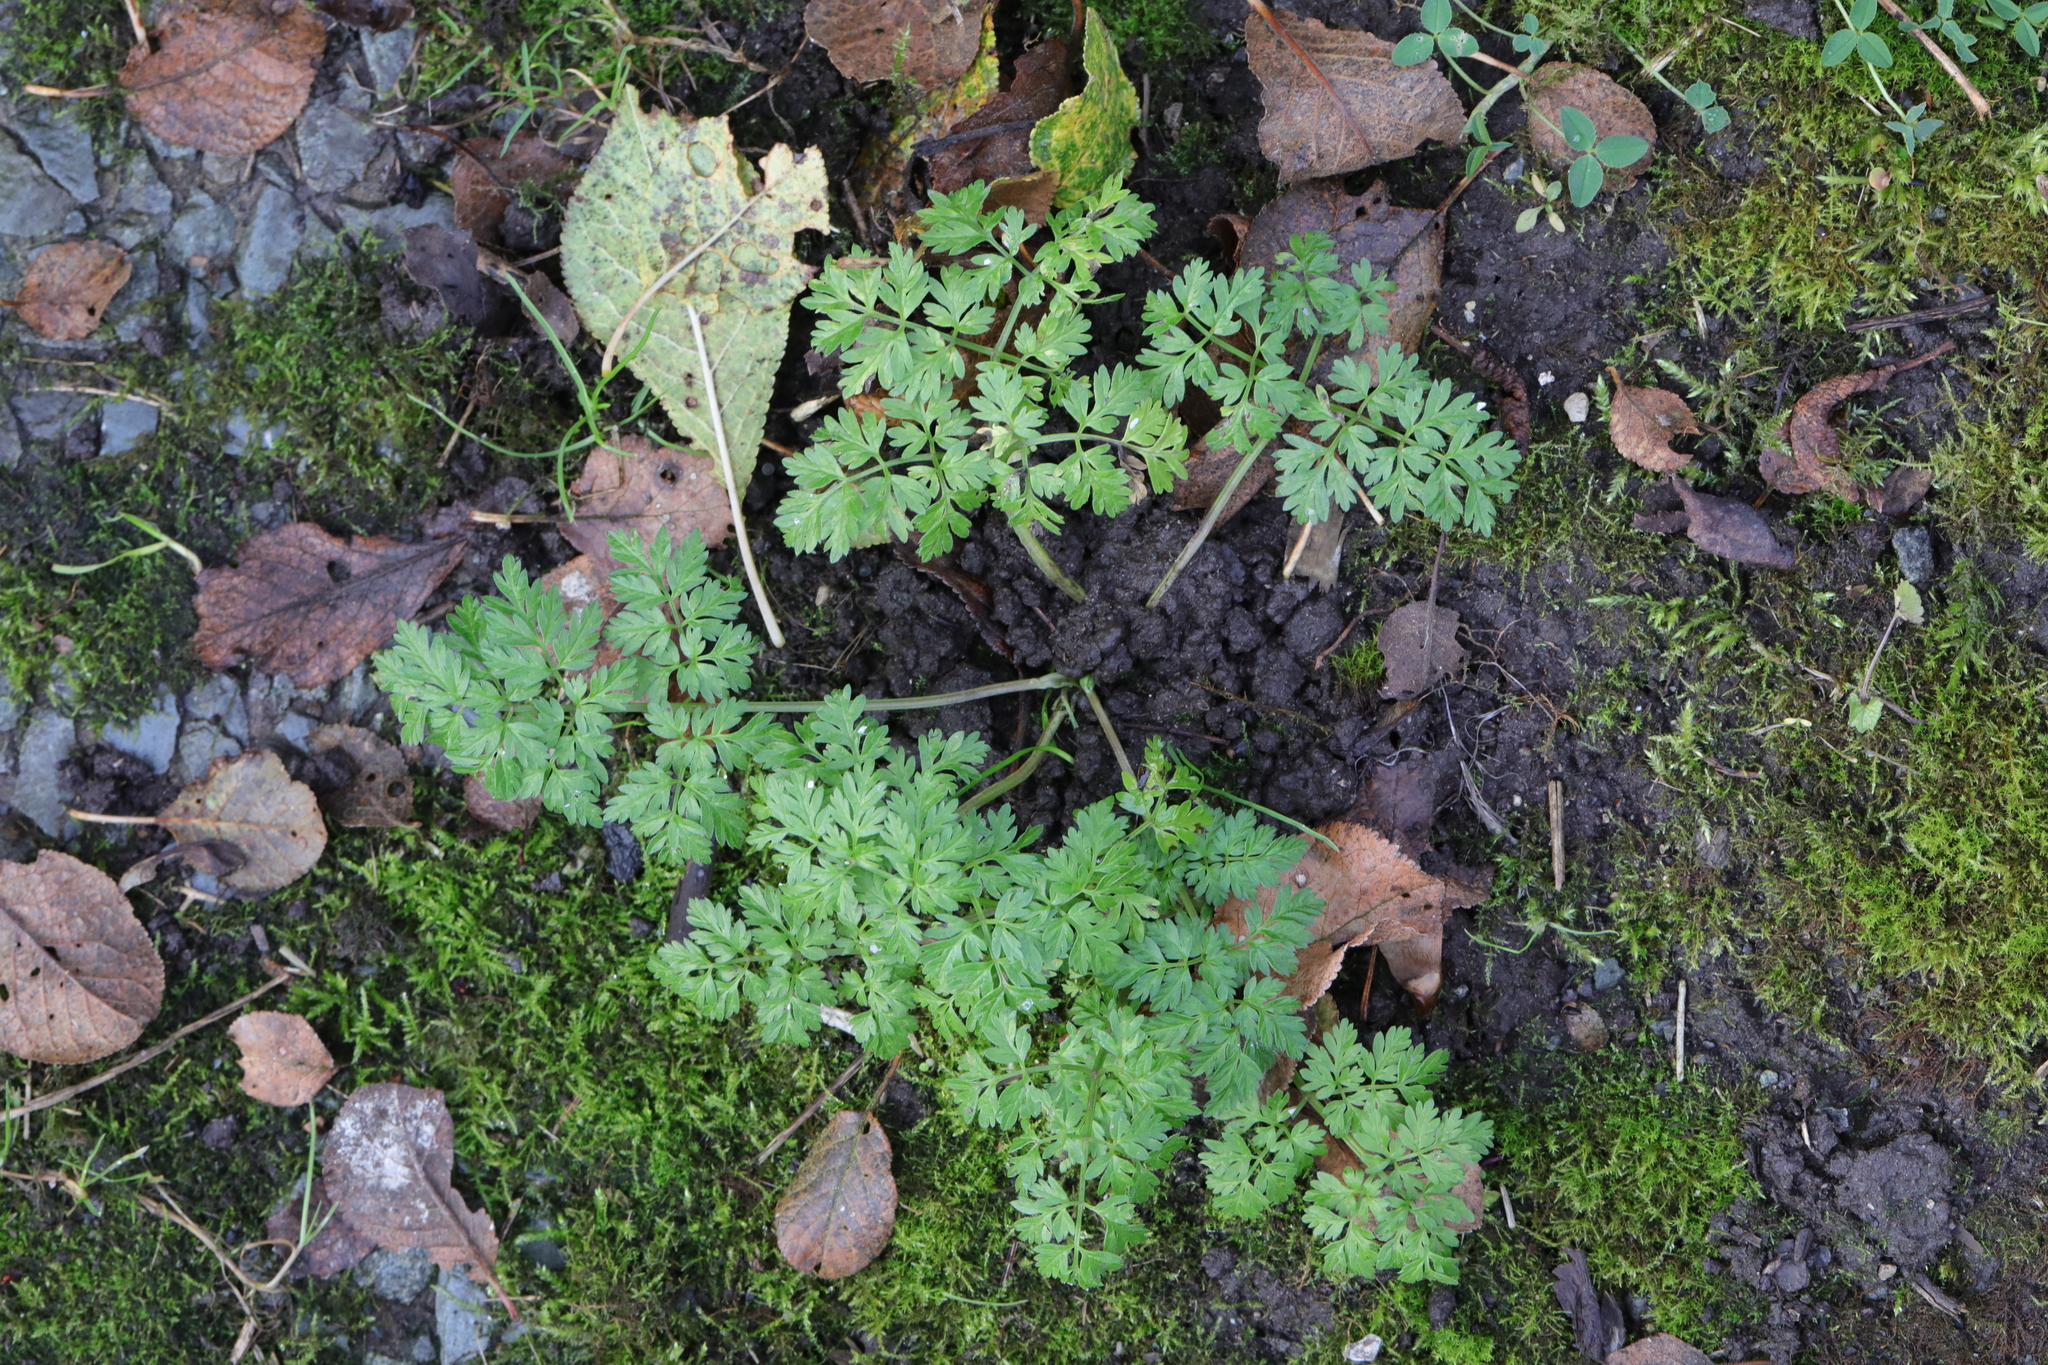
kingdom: Plantae
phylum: Tracheophyta
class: Magnoliopsida
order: Apiales
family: Apiaceae
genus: Anthriscus
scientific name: Anthriscus sylvestris
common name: Cow parsley
